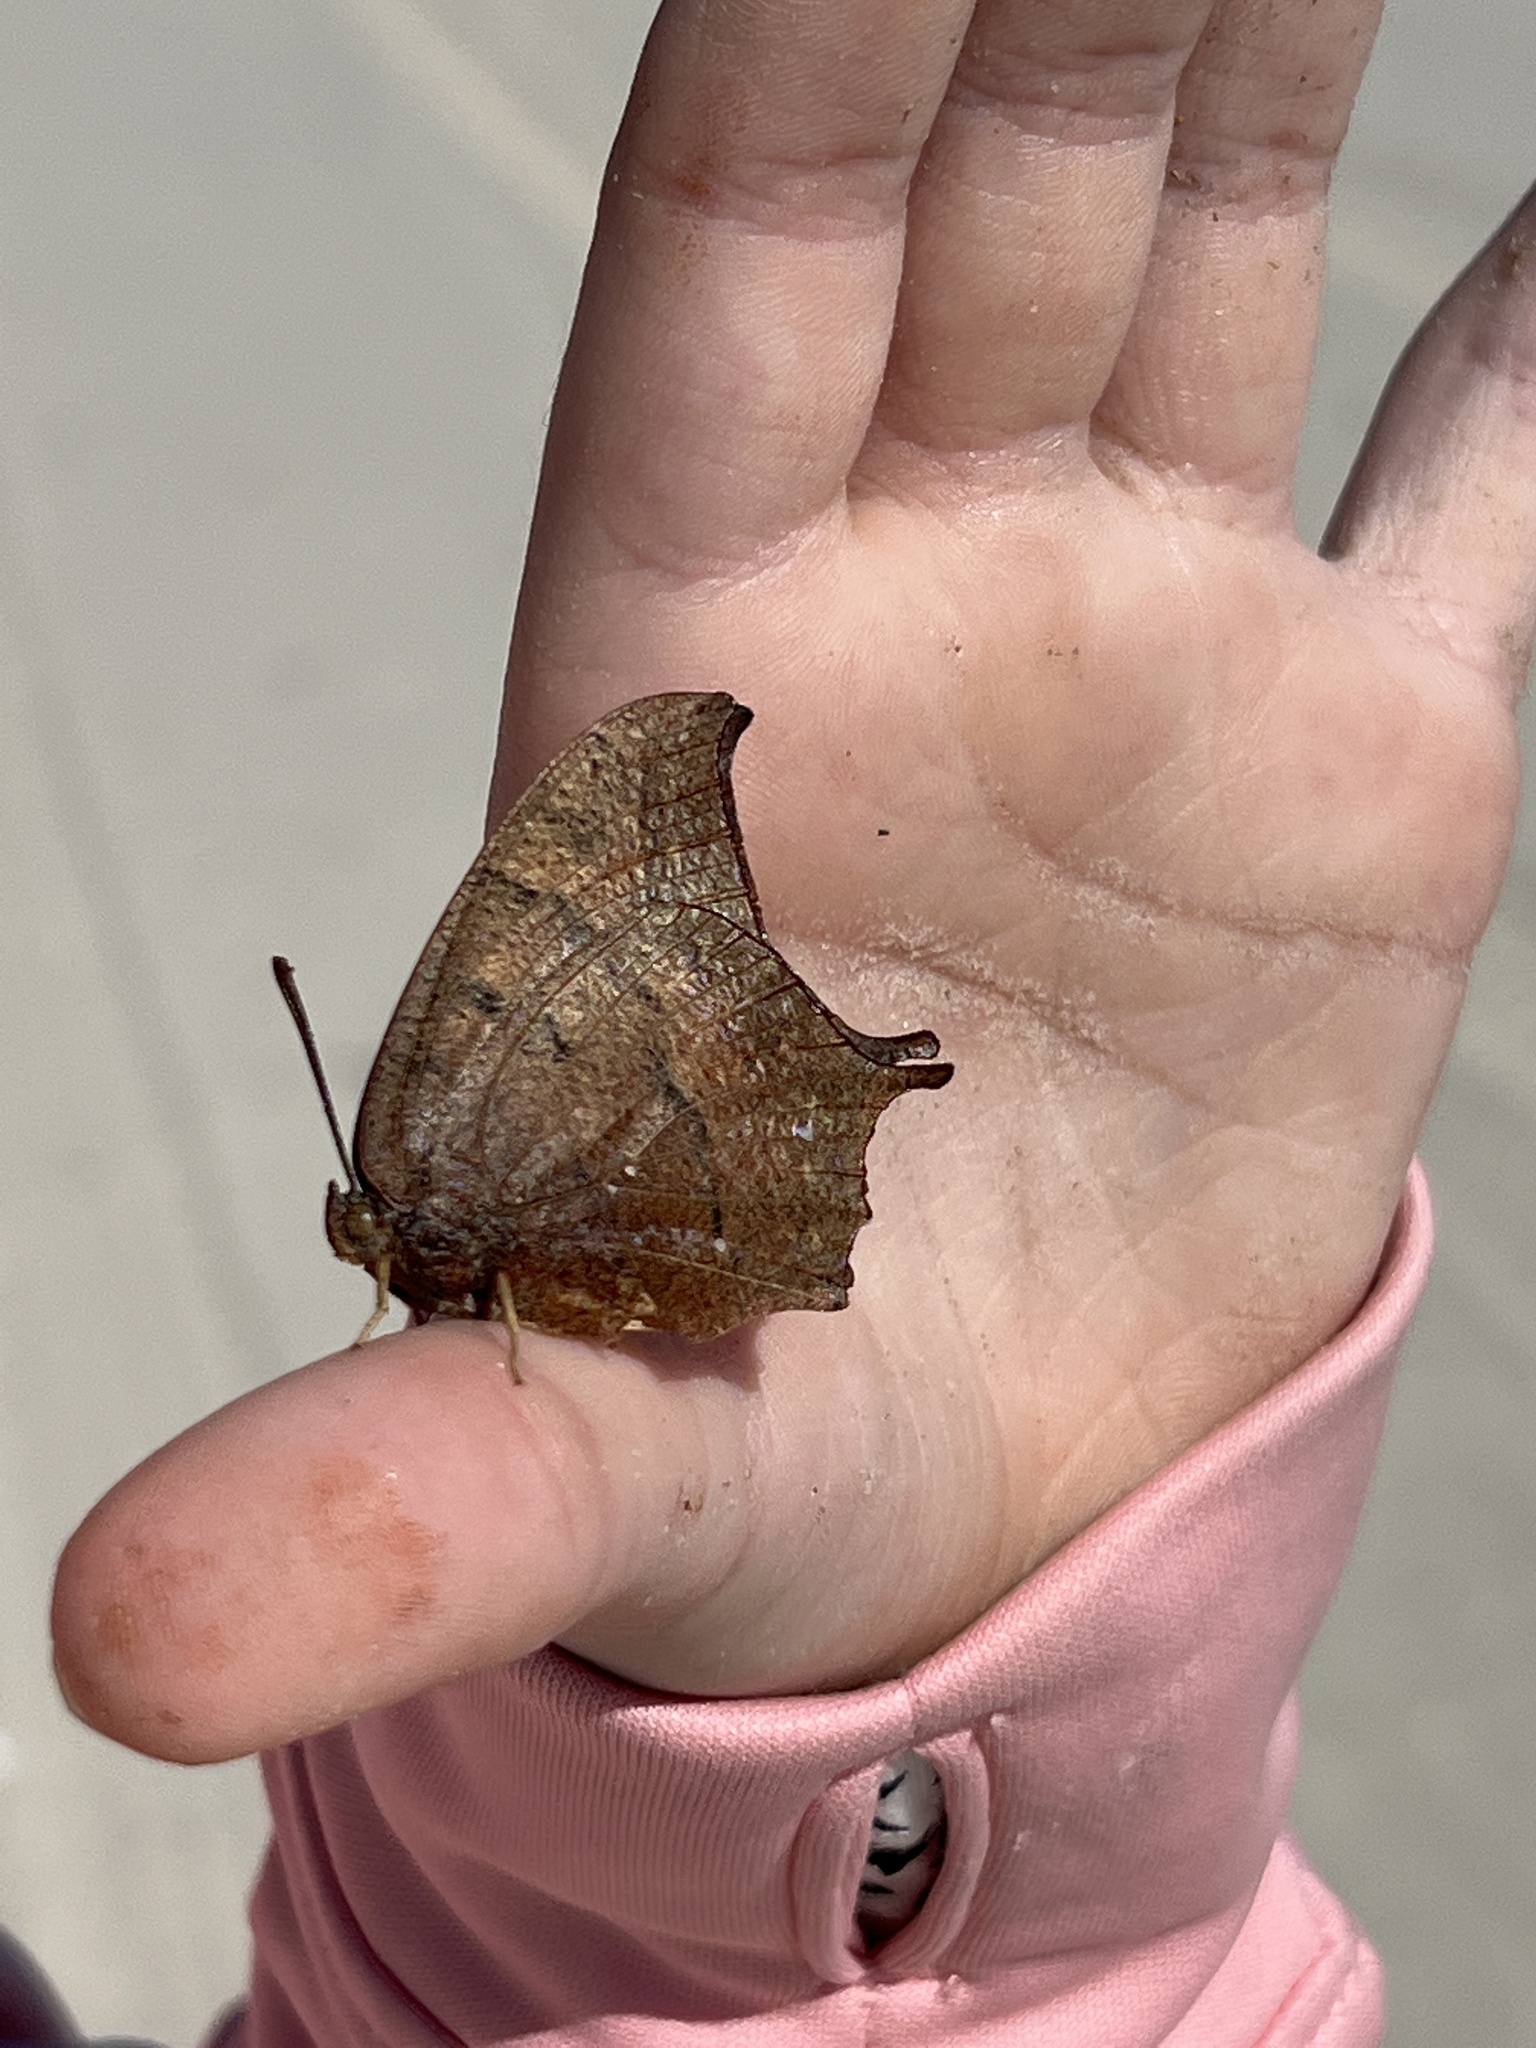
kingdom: Animalia
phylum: Arthropoda
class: Insecta
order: Lepidoptera
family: Nymphalidae
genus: Anaea
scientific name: Anaea andria
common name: Goatweed leafwing
